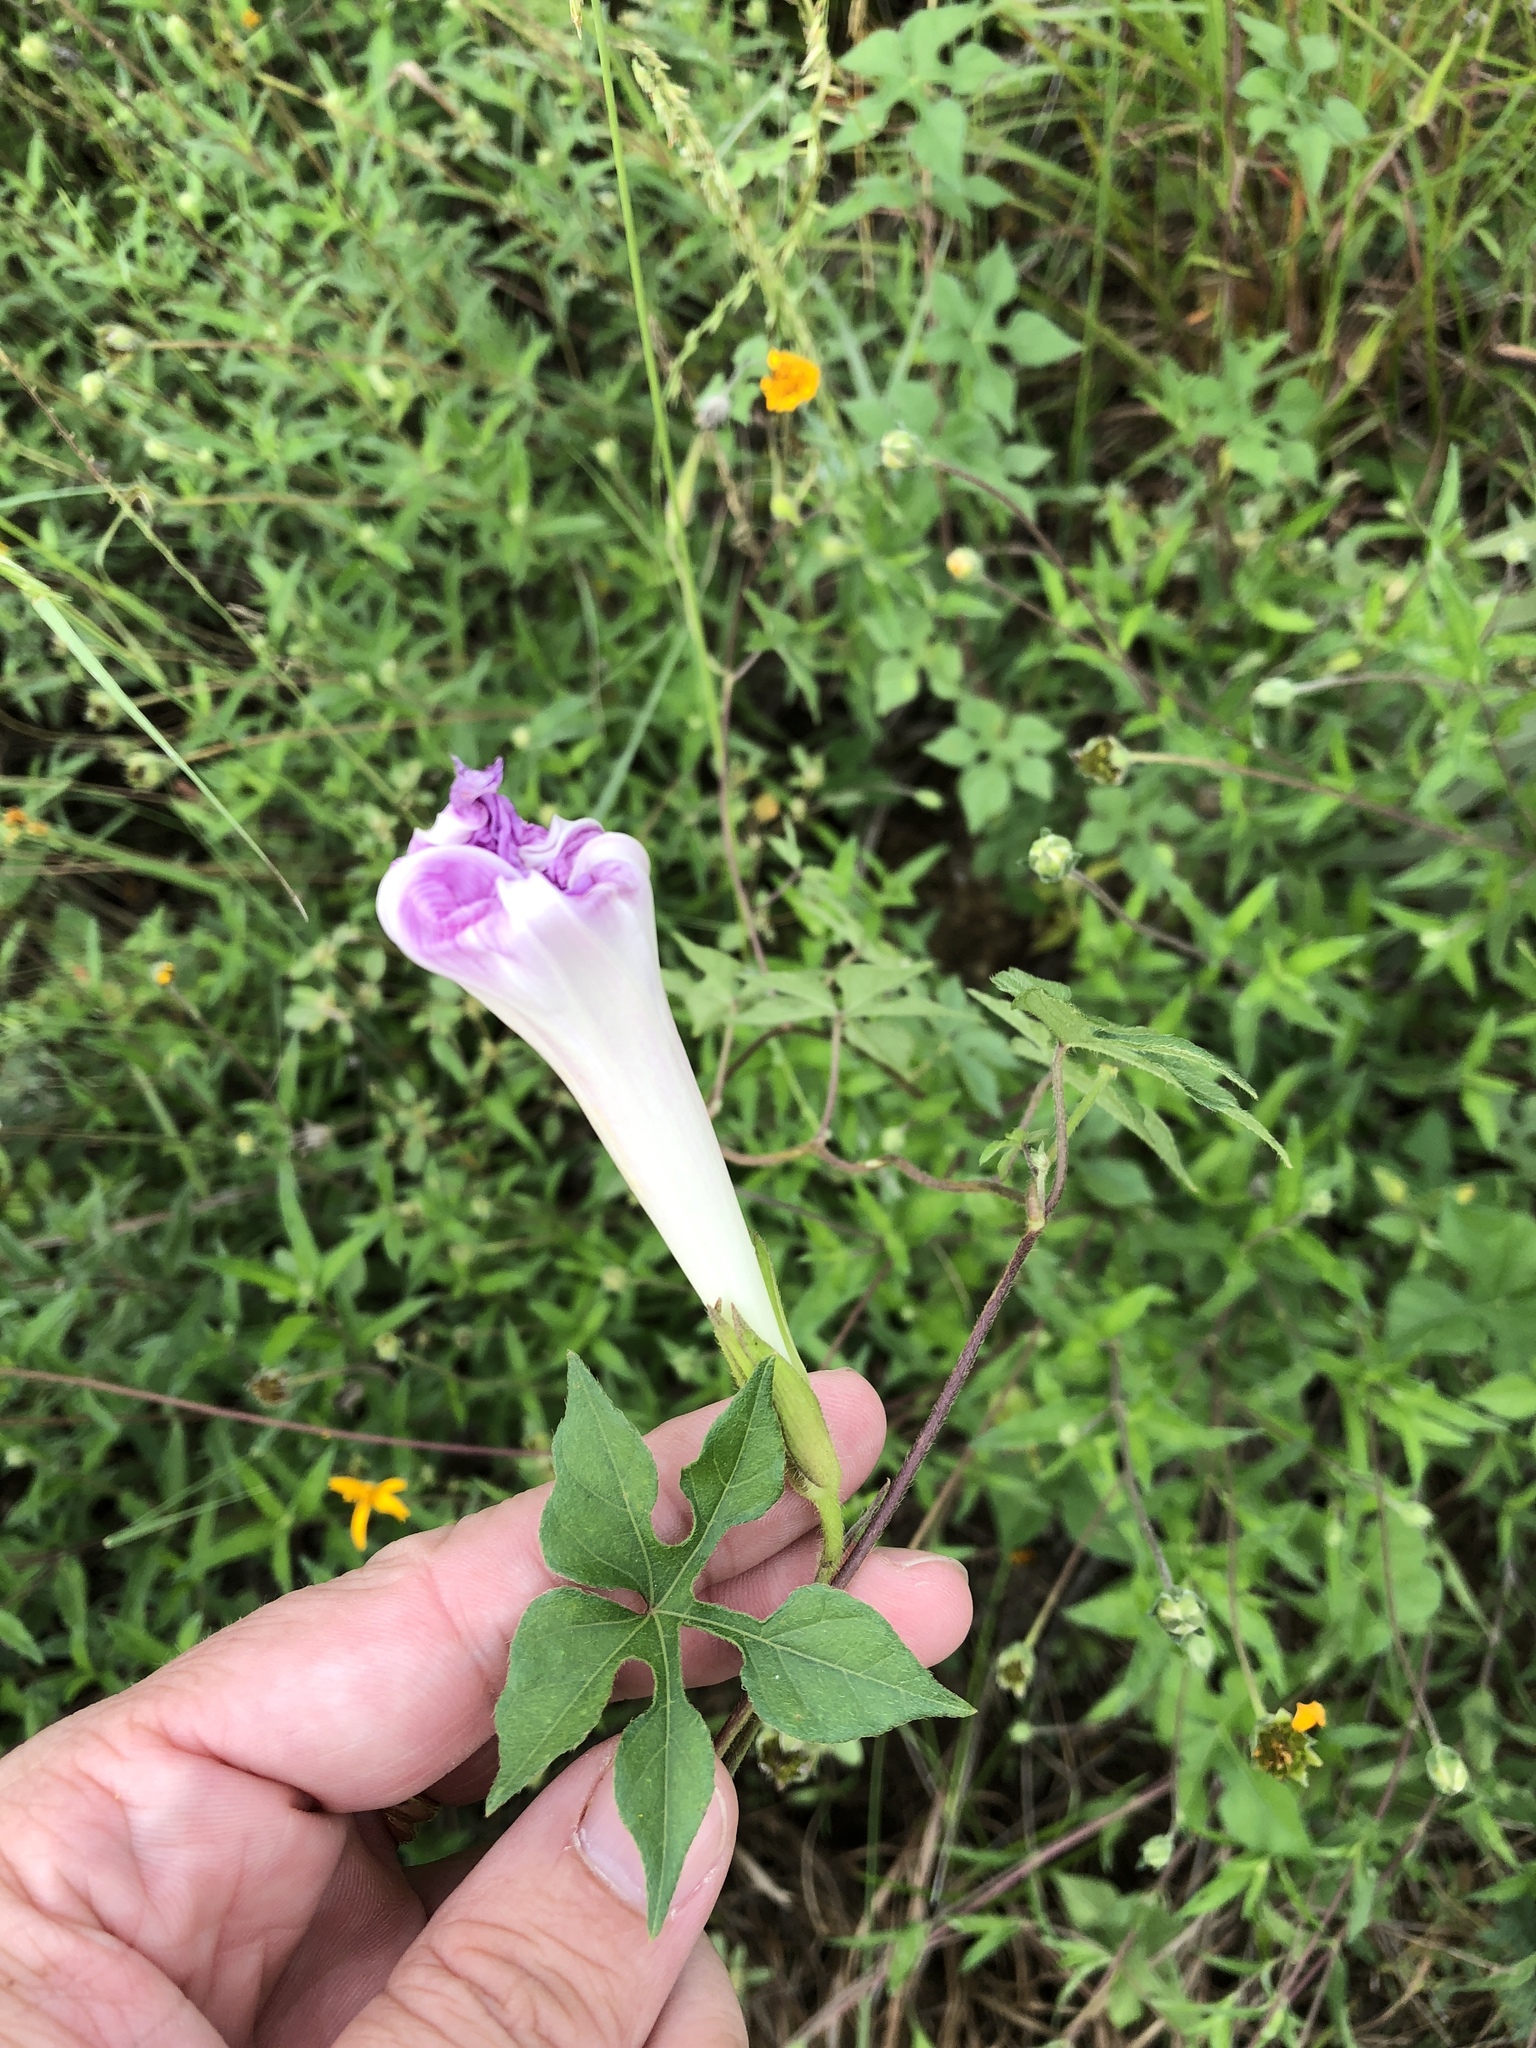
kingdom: Plantae
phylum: Tracheophyta
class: Magnoliopsida
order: Solanales
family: Convolvulaceae
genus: Ipomoea
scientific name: Ipomoea lindheimeri
